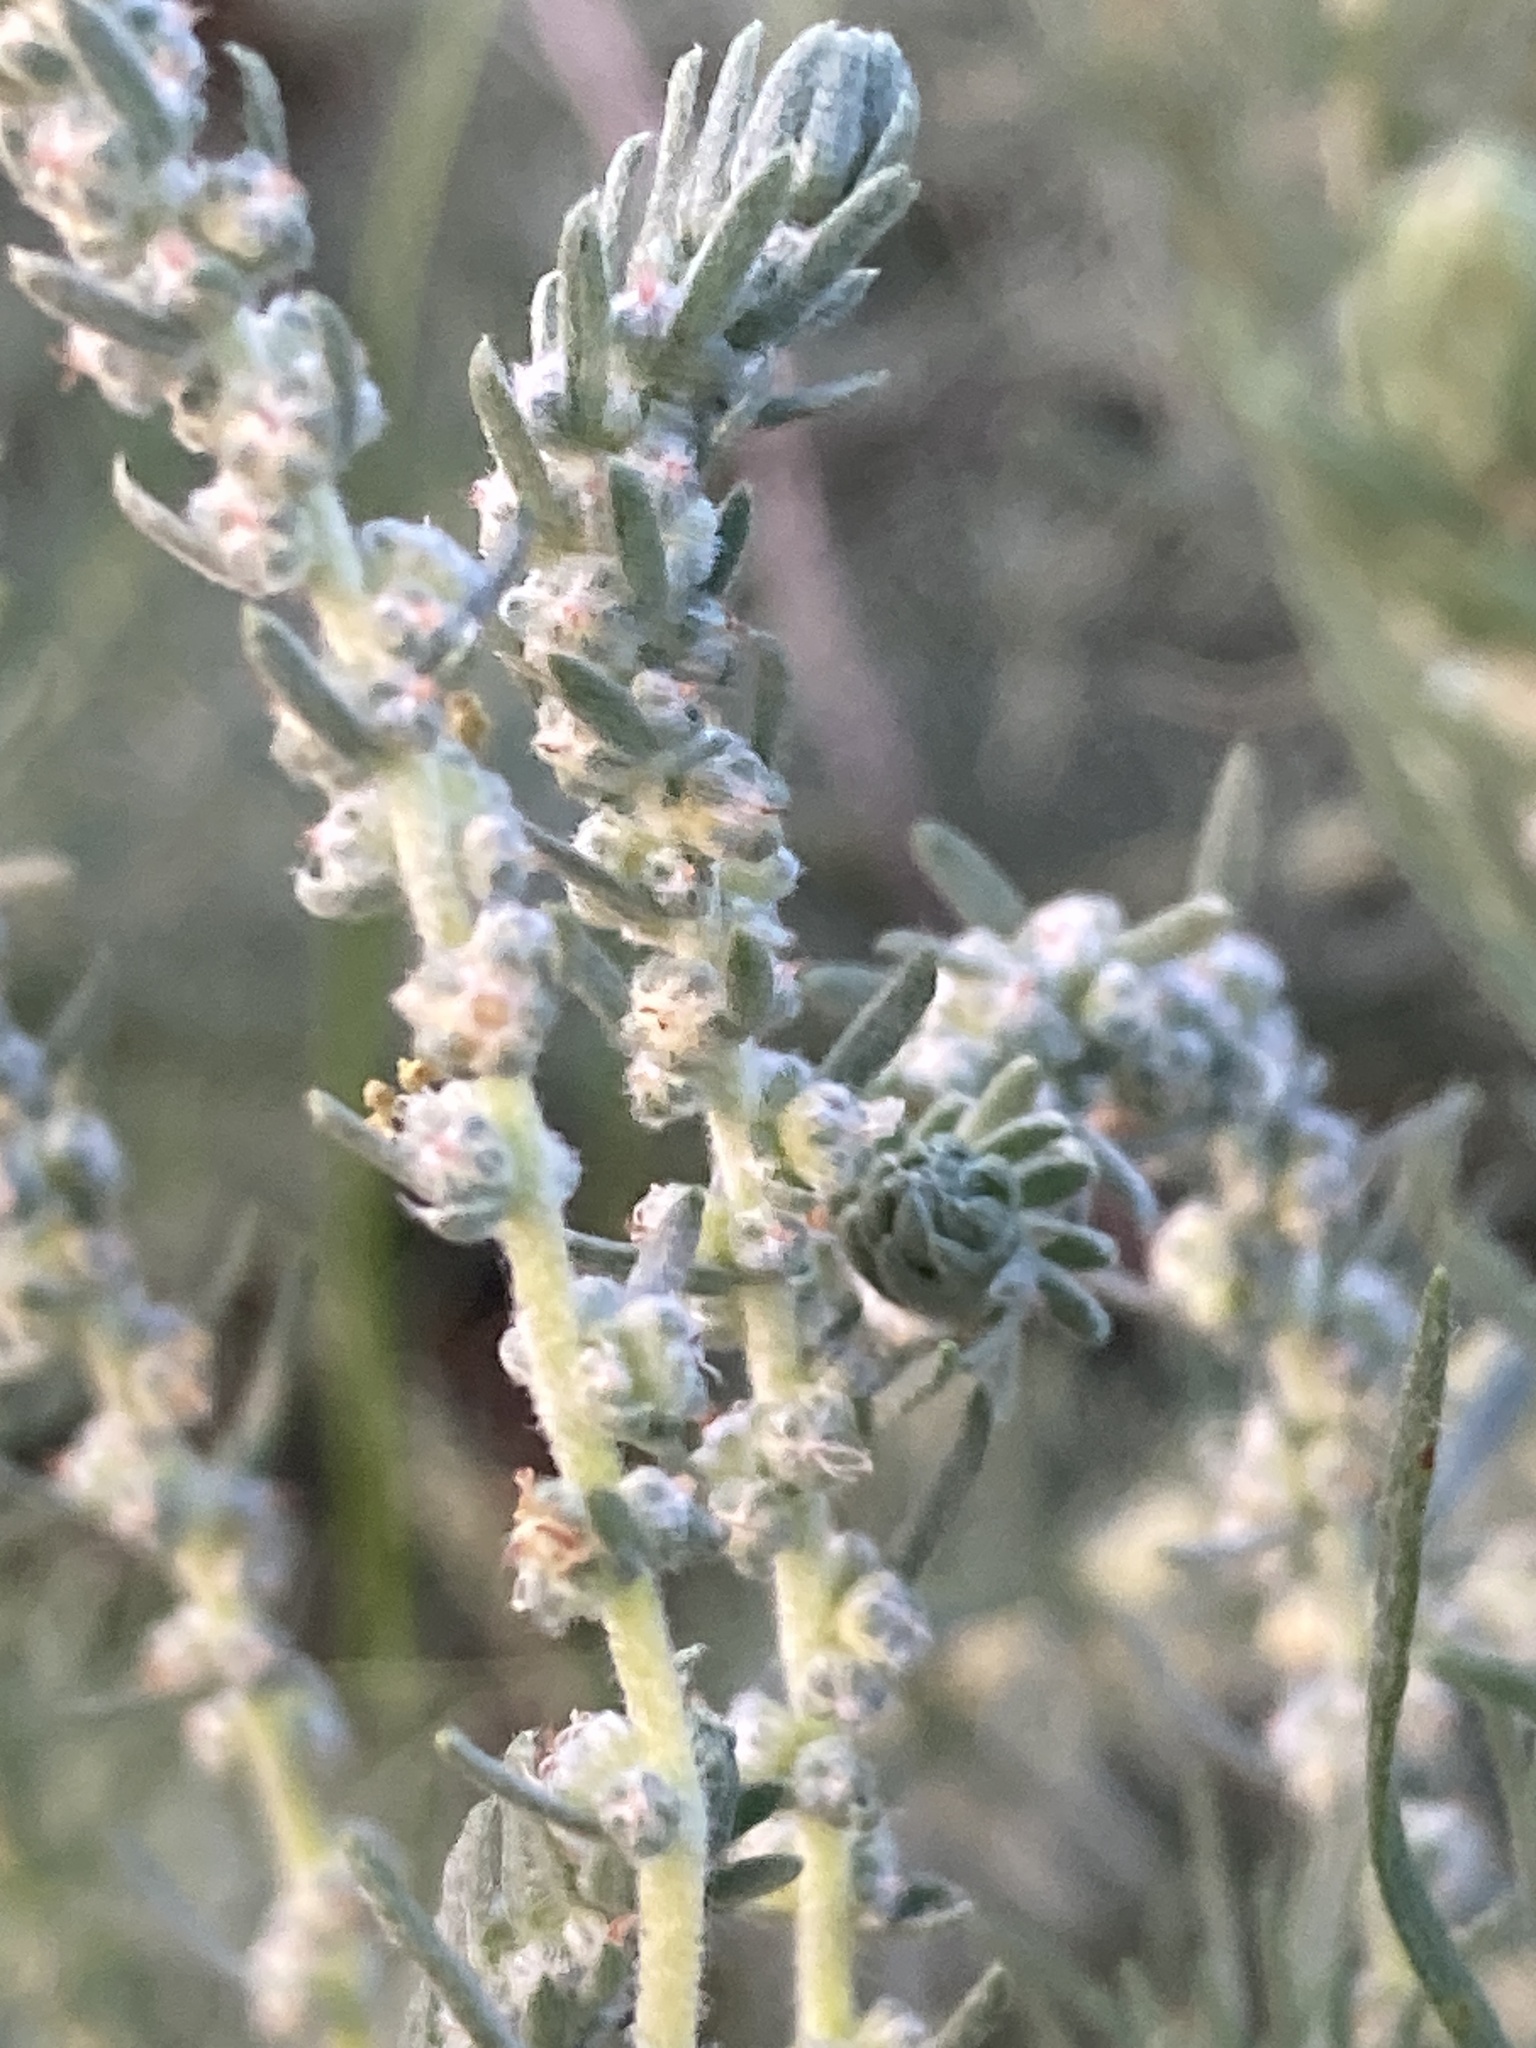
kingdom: Plantae
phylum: Tracheophyta
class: Magnoliopsida
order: Caryophyllales
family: Amaranthaceae
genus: Bassia
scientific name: Bassia prostrata
